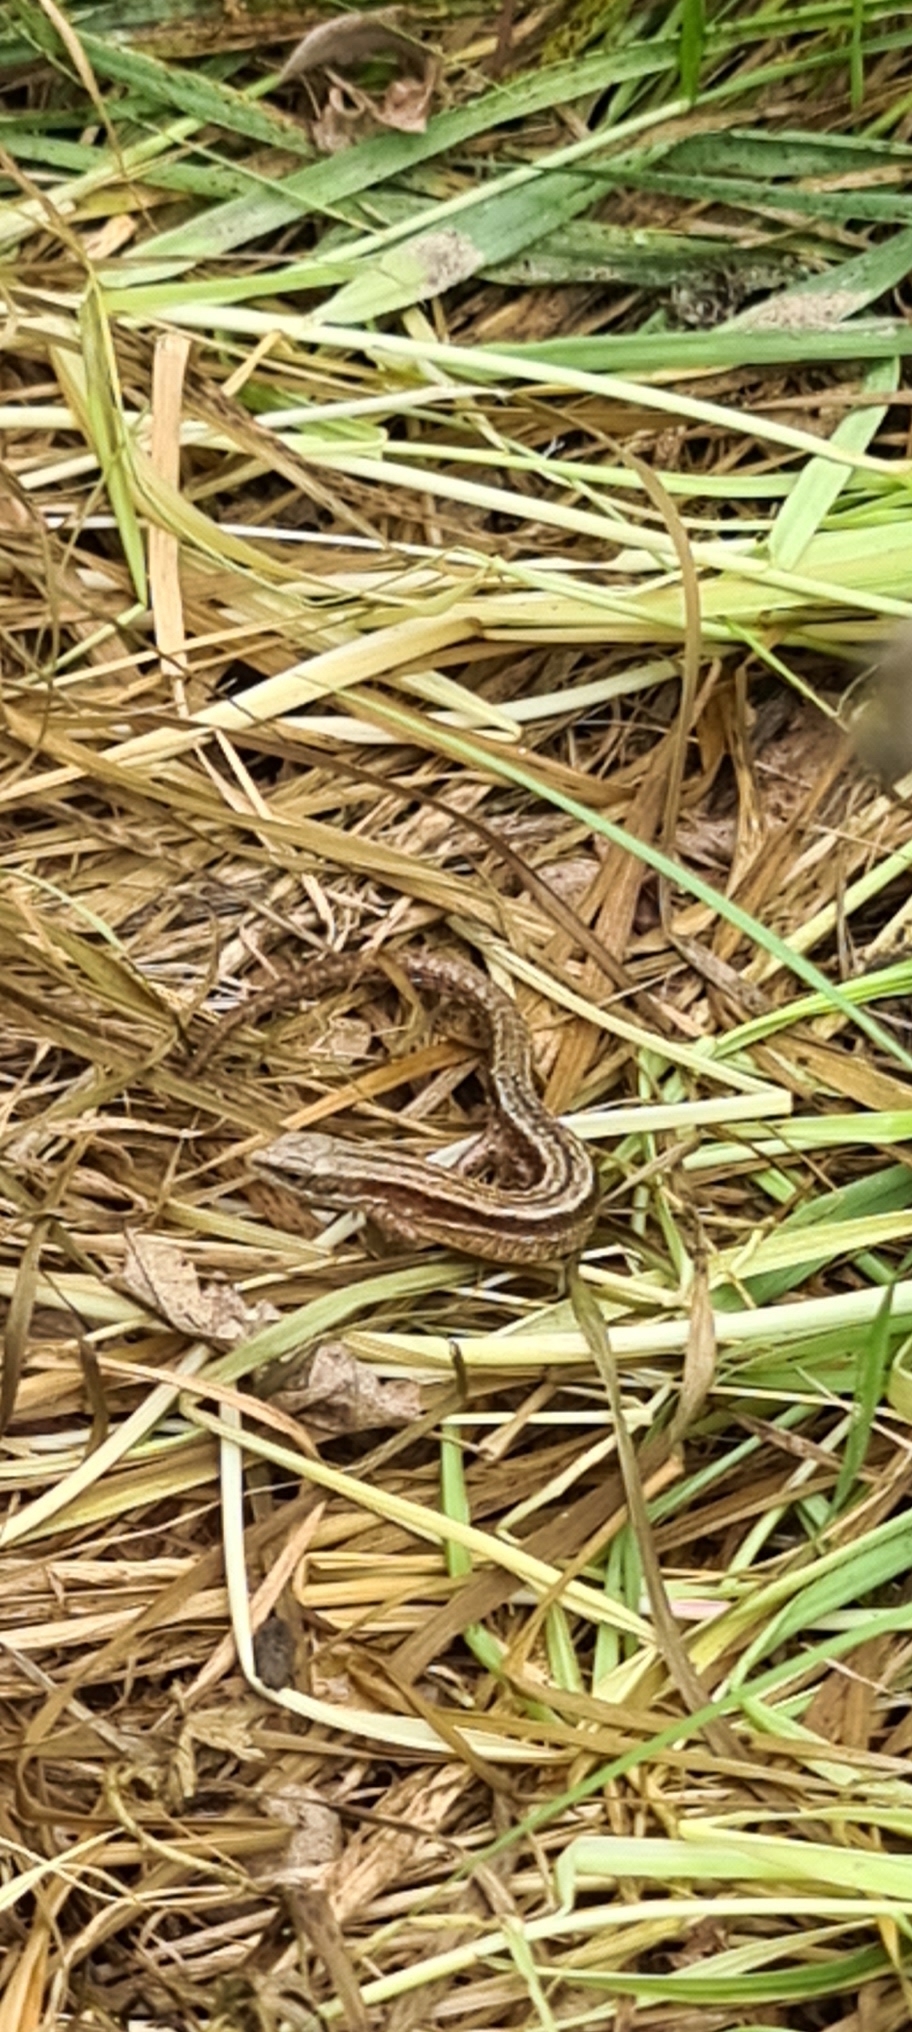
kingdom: Animalia
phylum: Chordata
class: Squamata
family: Lacertidae
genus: Zootoca
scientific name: Zootoca vivipara
